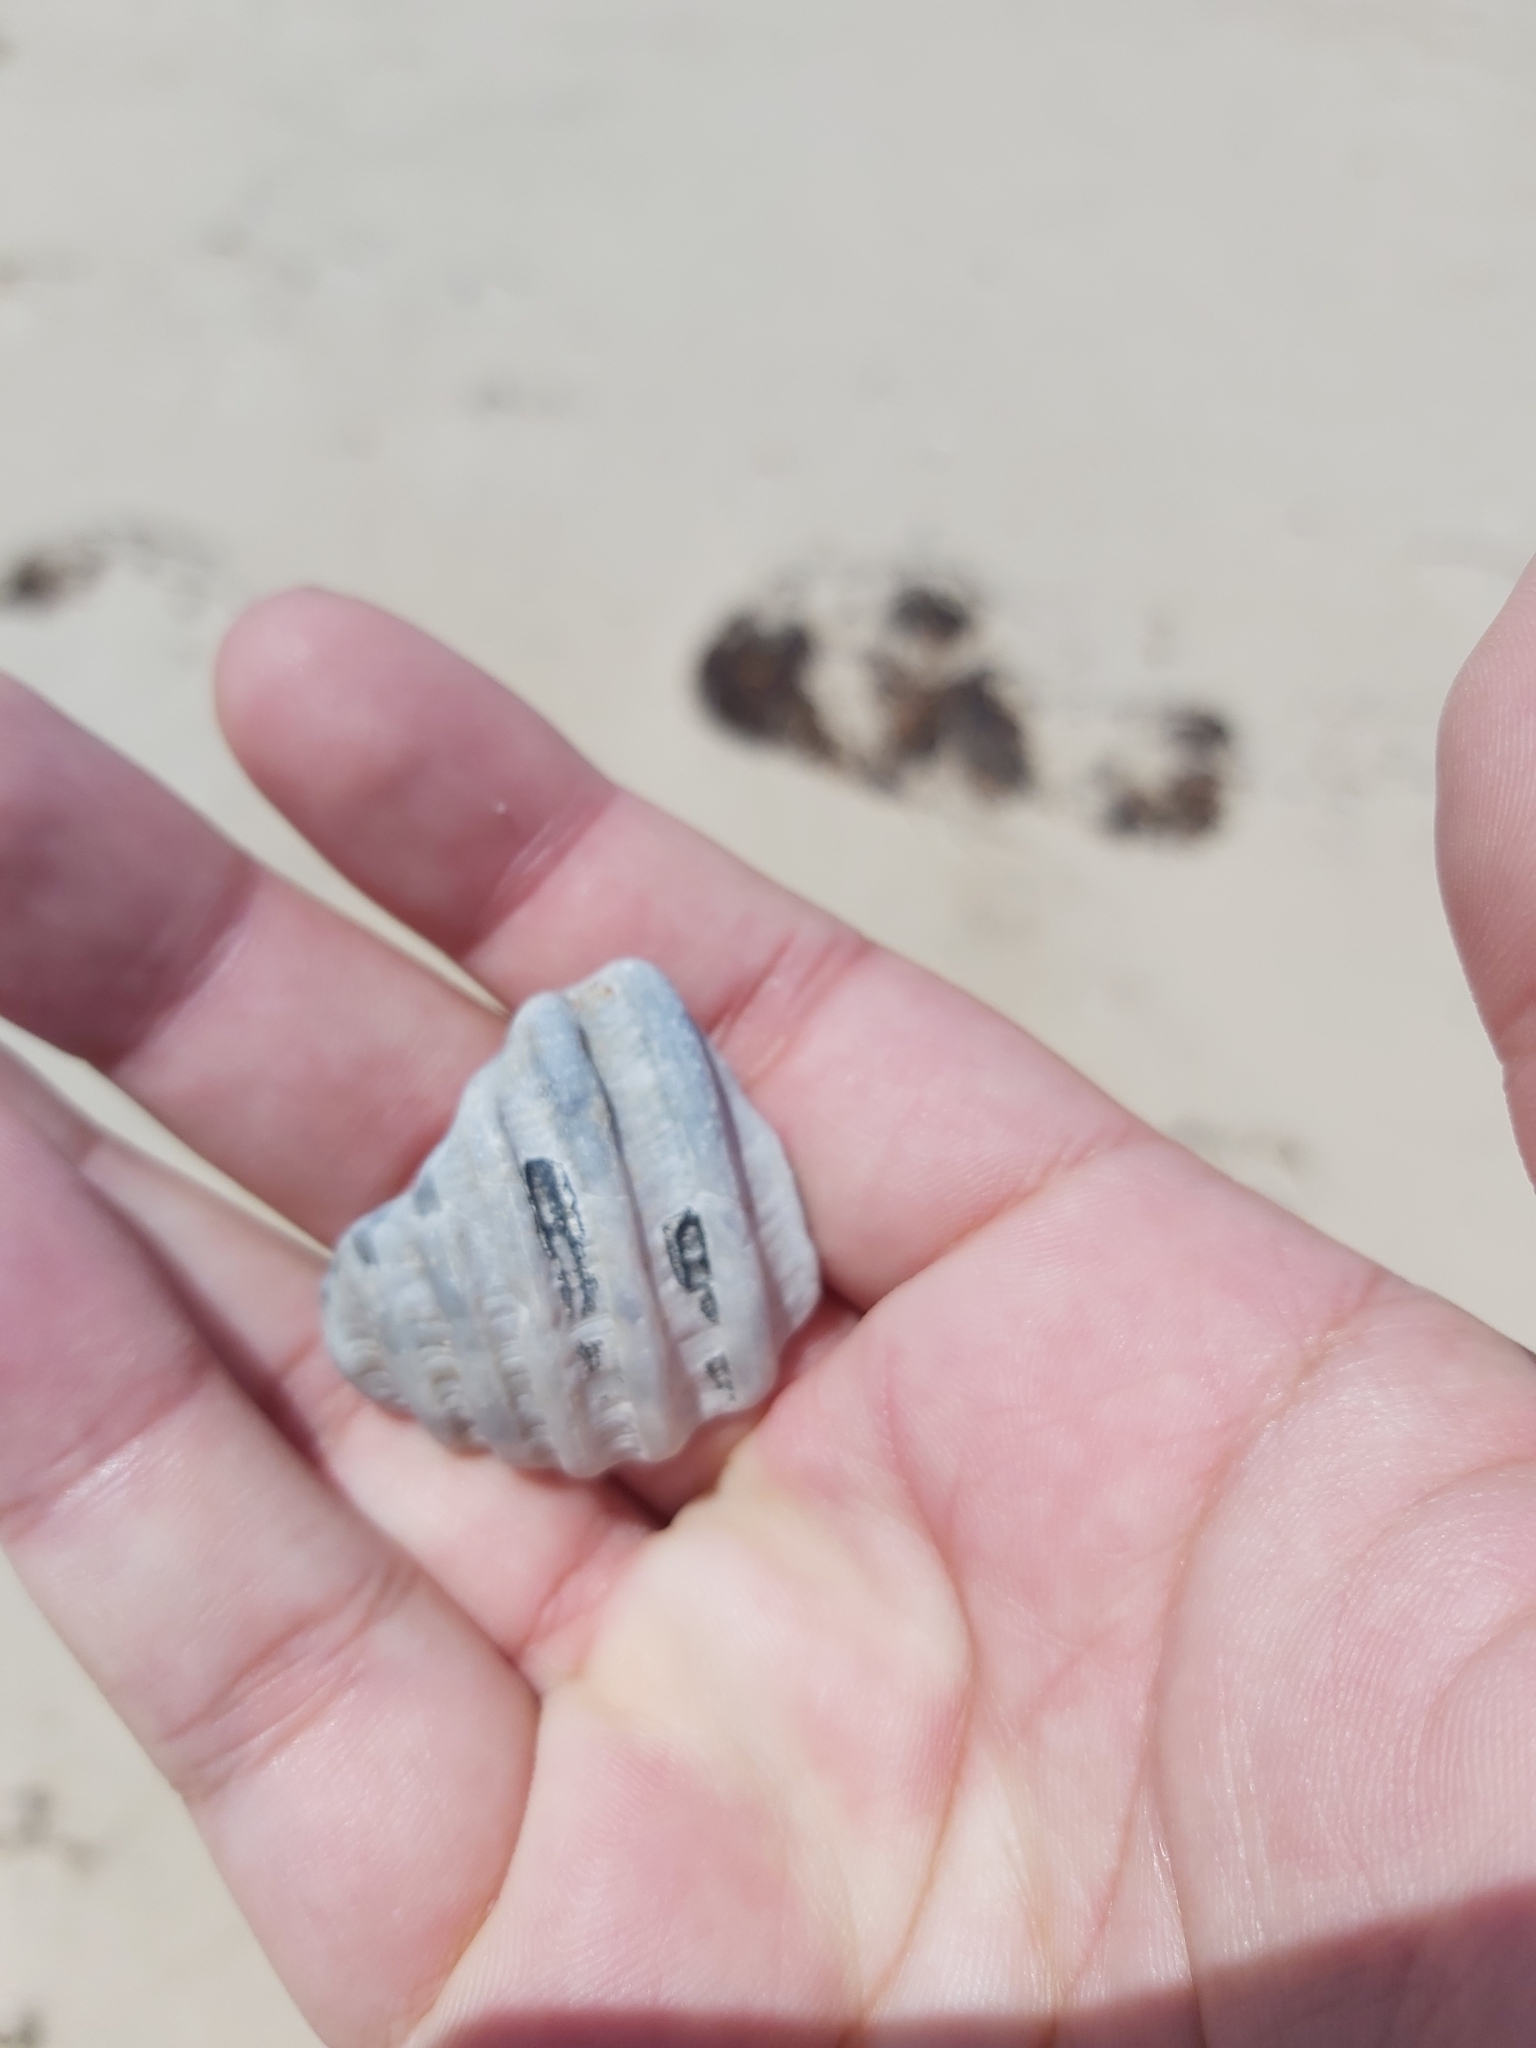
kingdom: Animalia
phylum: Mollusca
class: Gastropoda
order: Neogastropoda
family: Muricidae
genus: Dicathais
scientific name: Dicathais orbita
